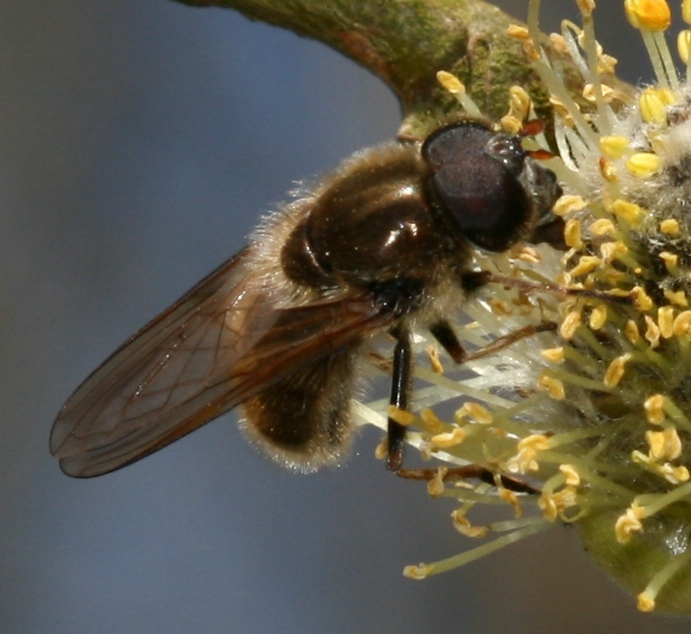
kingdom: Animalia
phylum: Arthropoda
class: Insecta
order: Diptera
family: Syrphidae
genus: Cheilosia
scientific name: Cheilosia albipila
